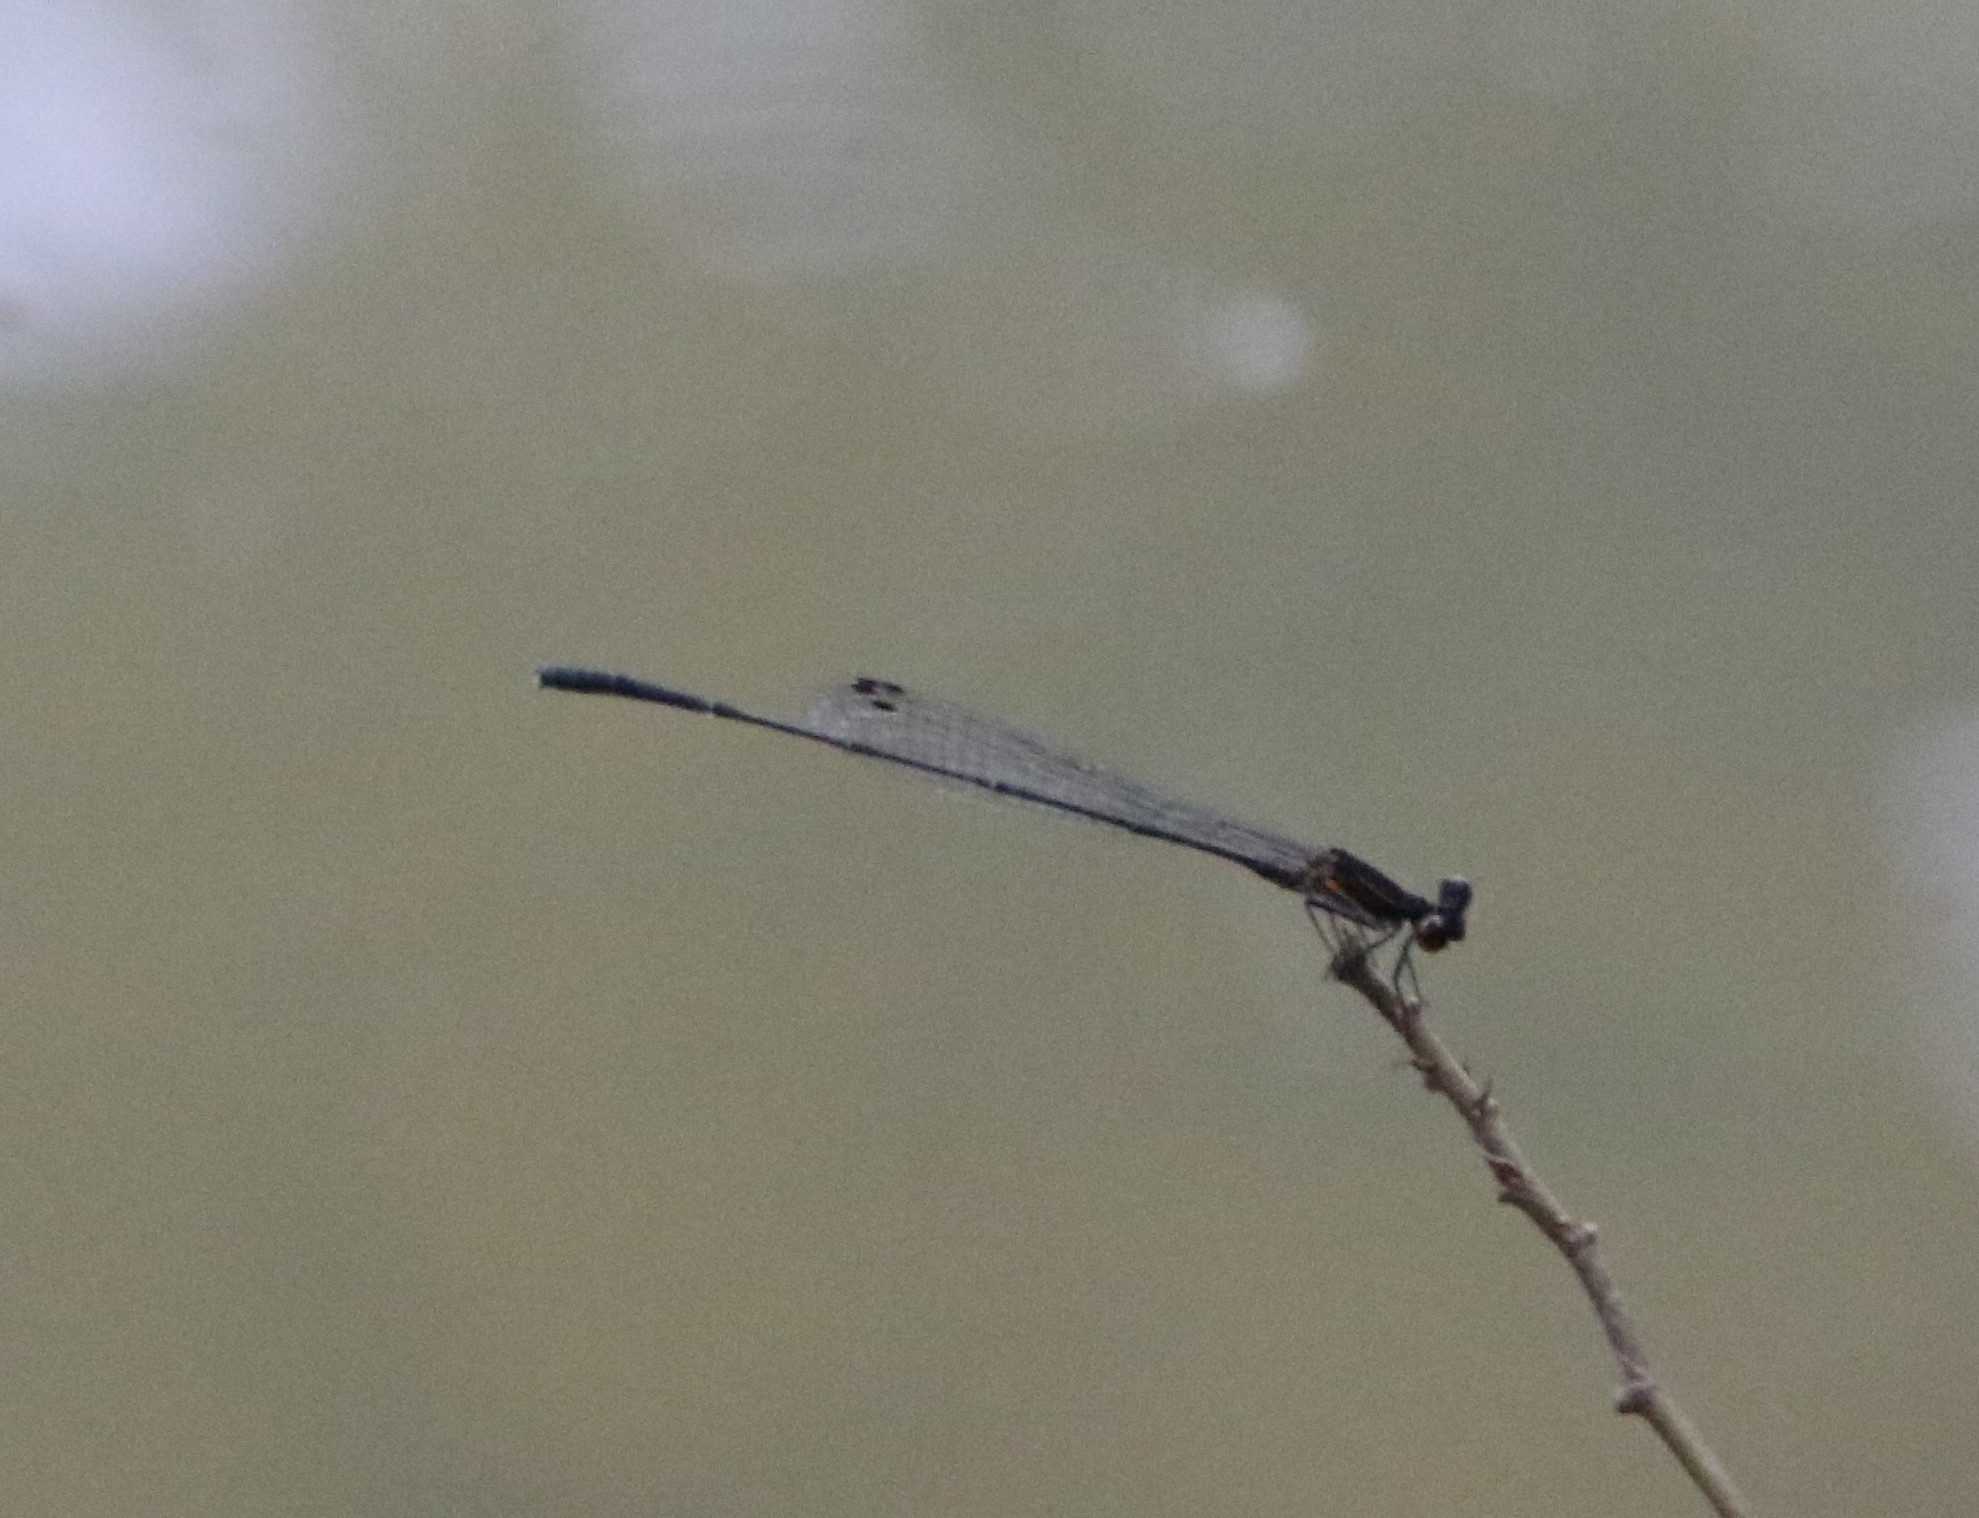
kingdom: Animalia
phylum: Arthropoda
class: Insecta
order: Odonata
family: Platycnemididae
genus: Prodasineura
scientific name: Prodasineura verticalis
